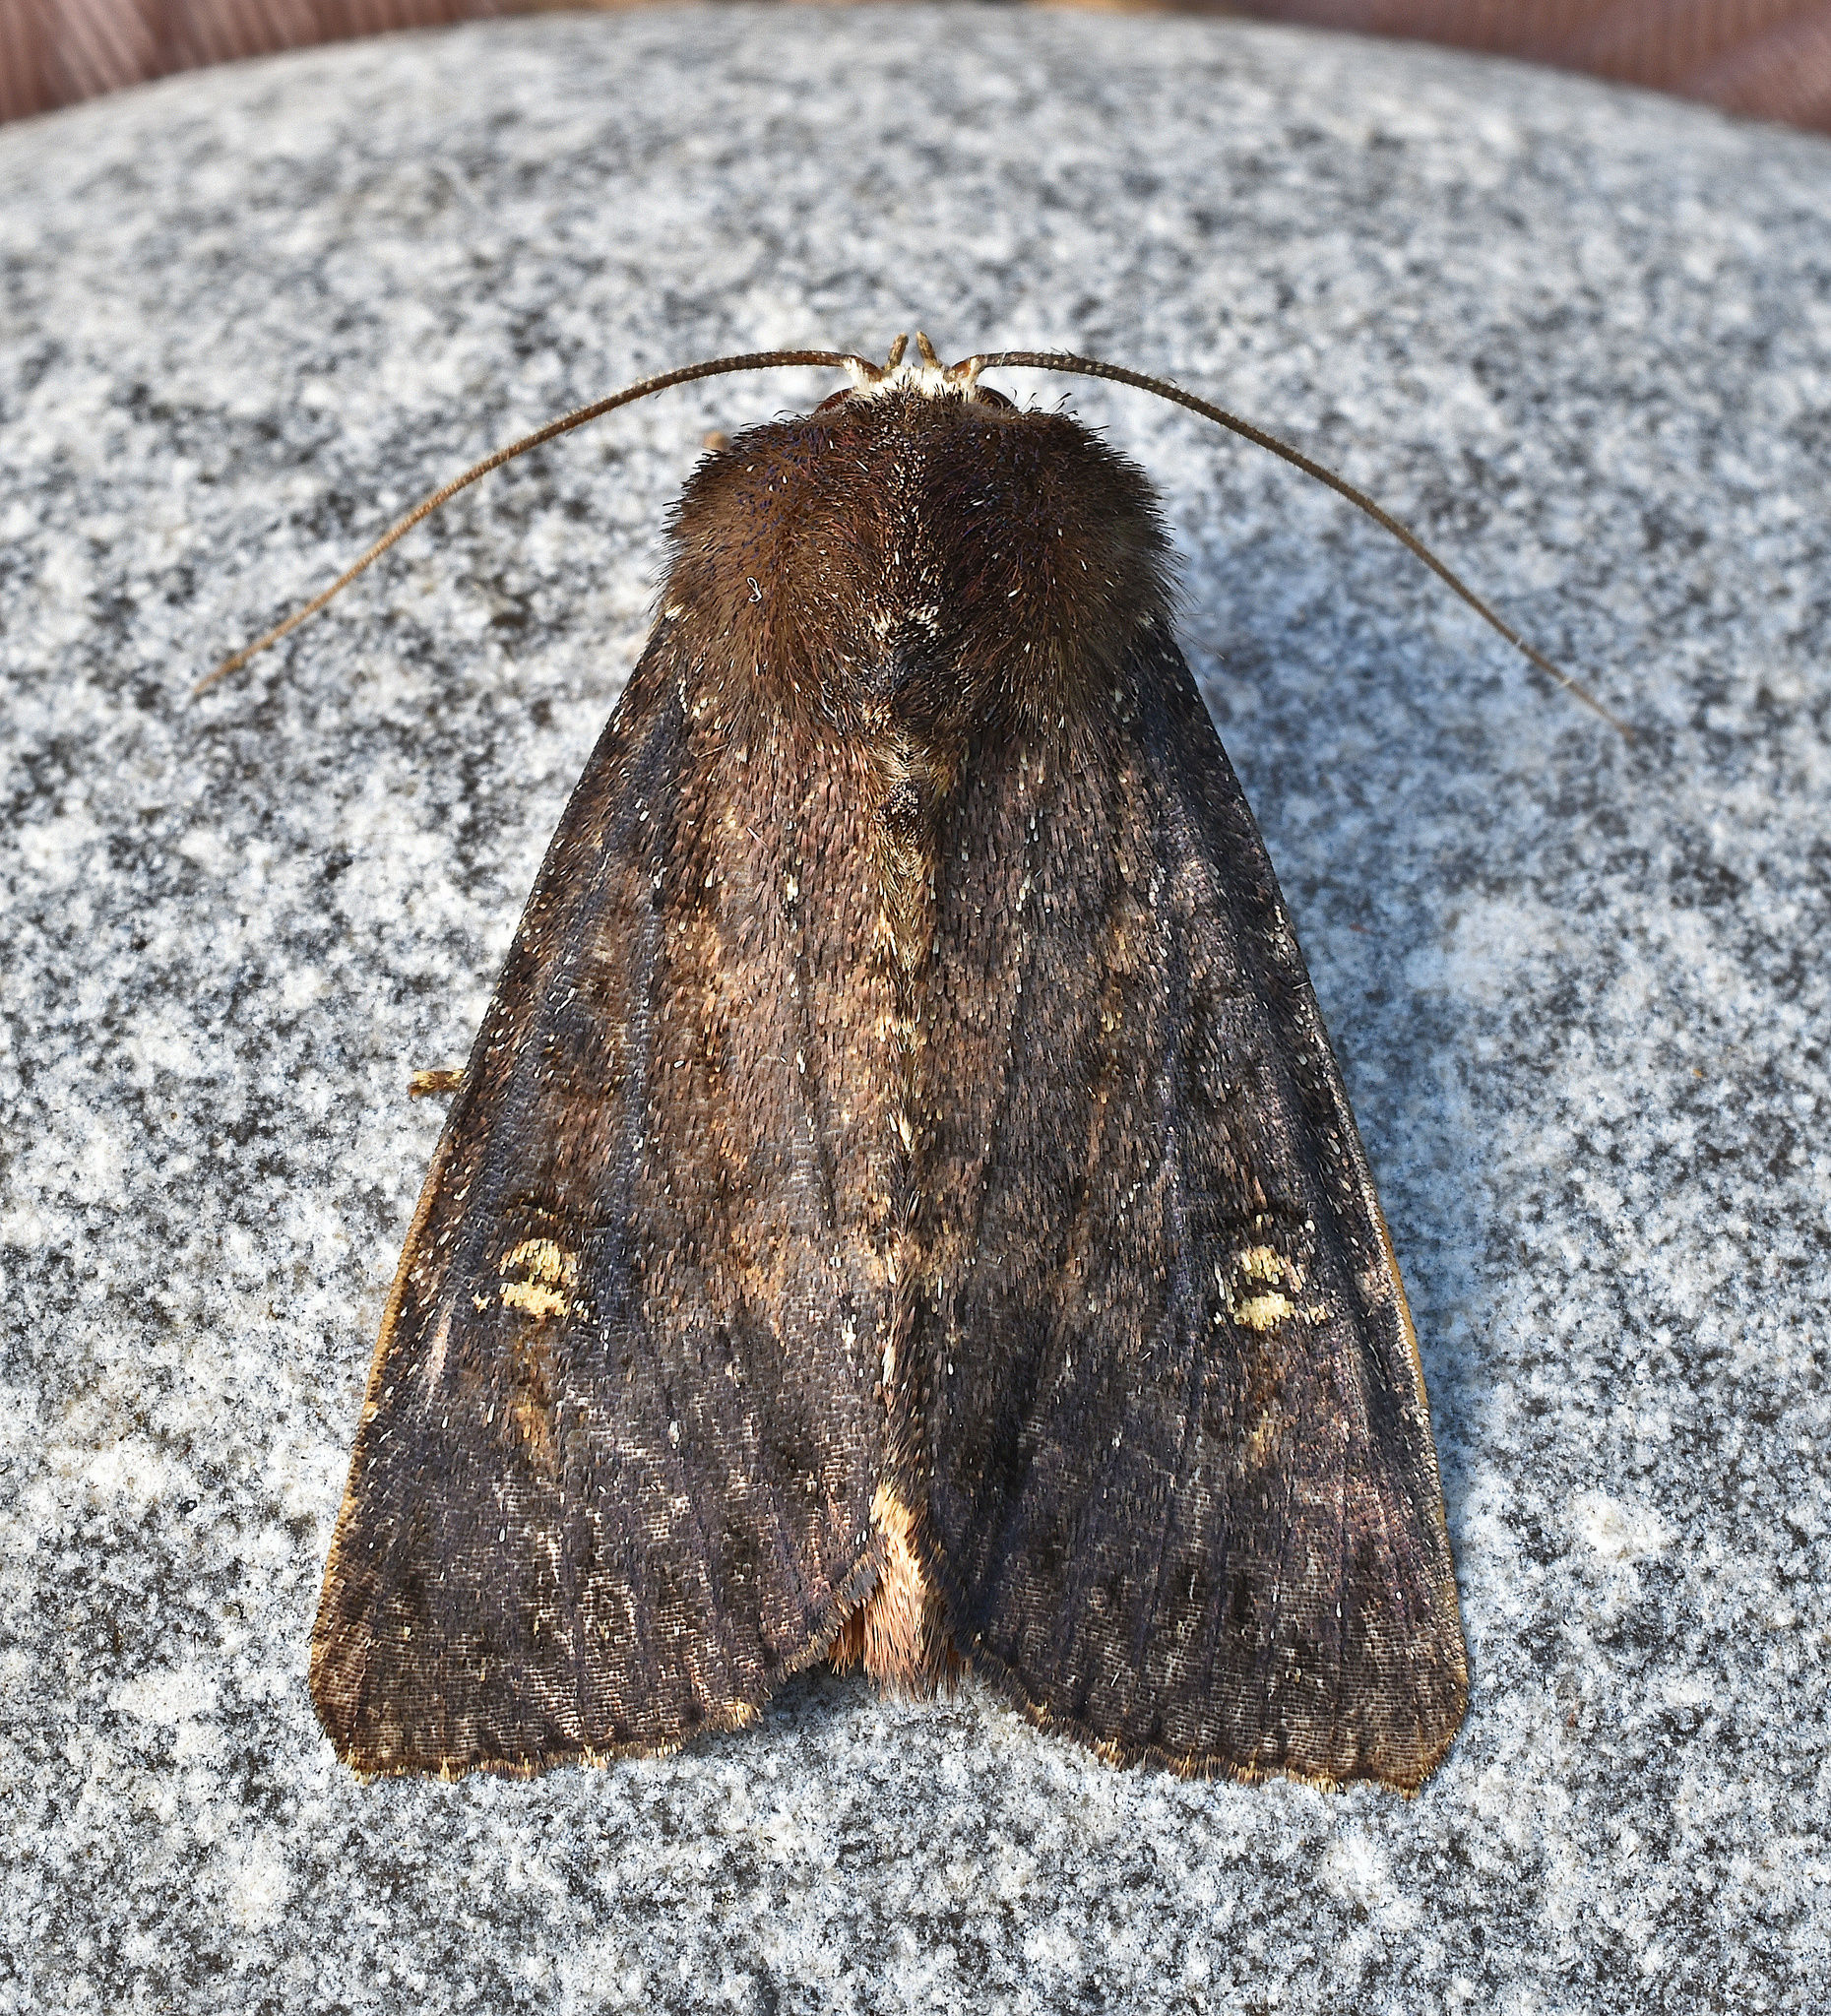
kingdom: Animalia
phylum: Arthropoda
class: Insecta
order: Lepidoptera
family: Noctuidae
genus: Apamea
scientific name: Apamea dubitans
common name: Doubtful apamea moth
